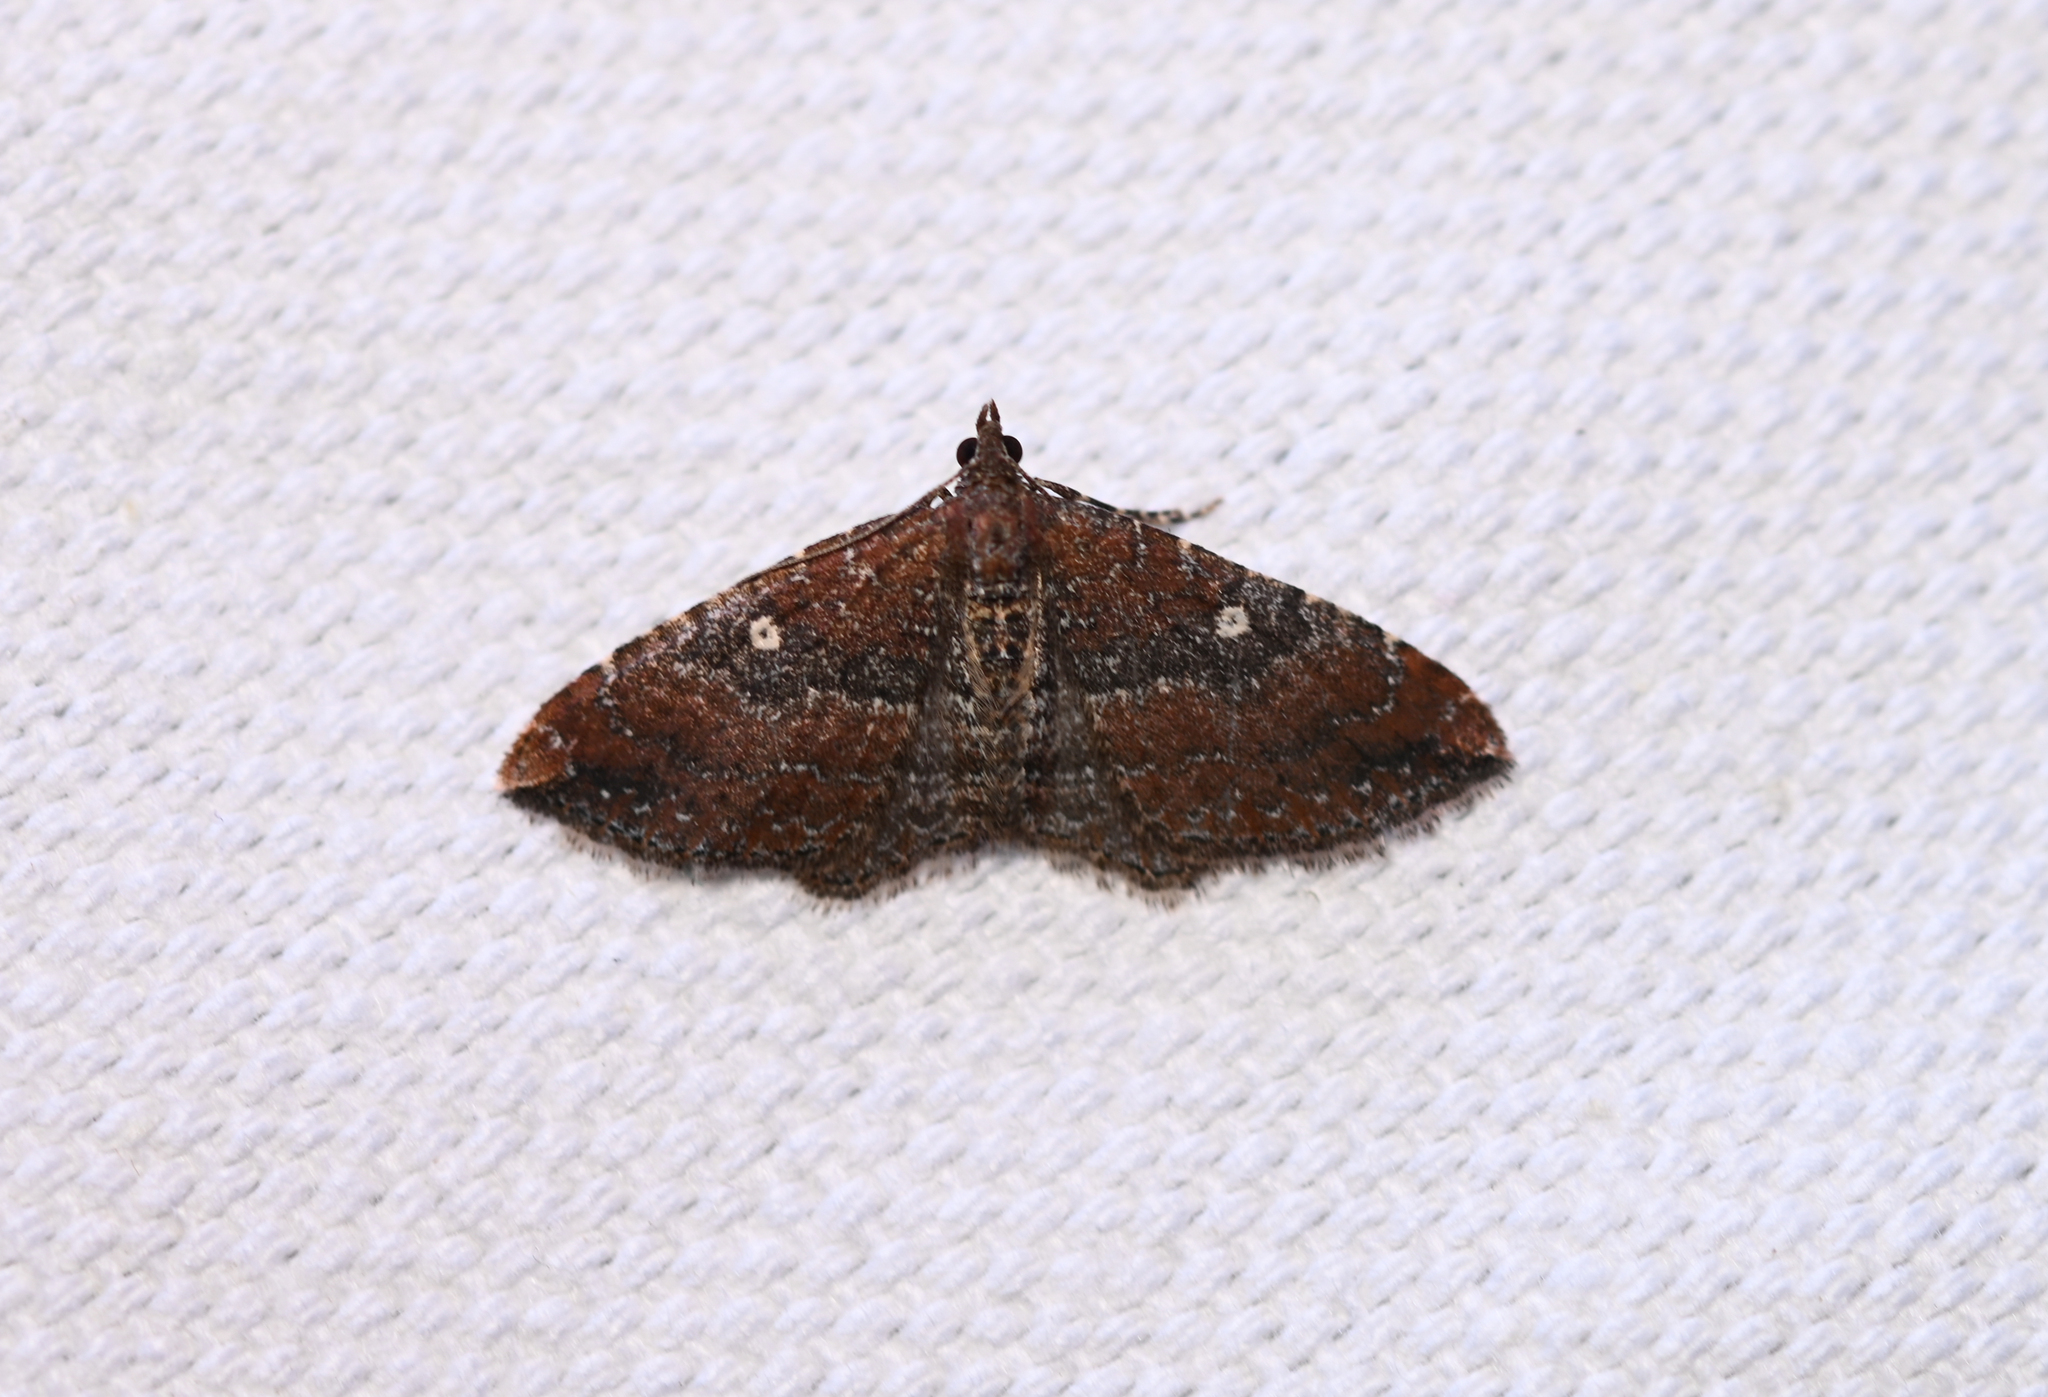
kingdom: Animalia
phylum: Arthropoda
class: Insecta
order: Lepidoptera
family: Geometridae
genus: Orthonama
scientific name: Orthonama obstipata
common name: The gem
